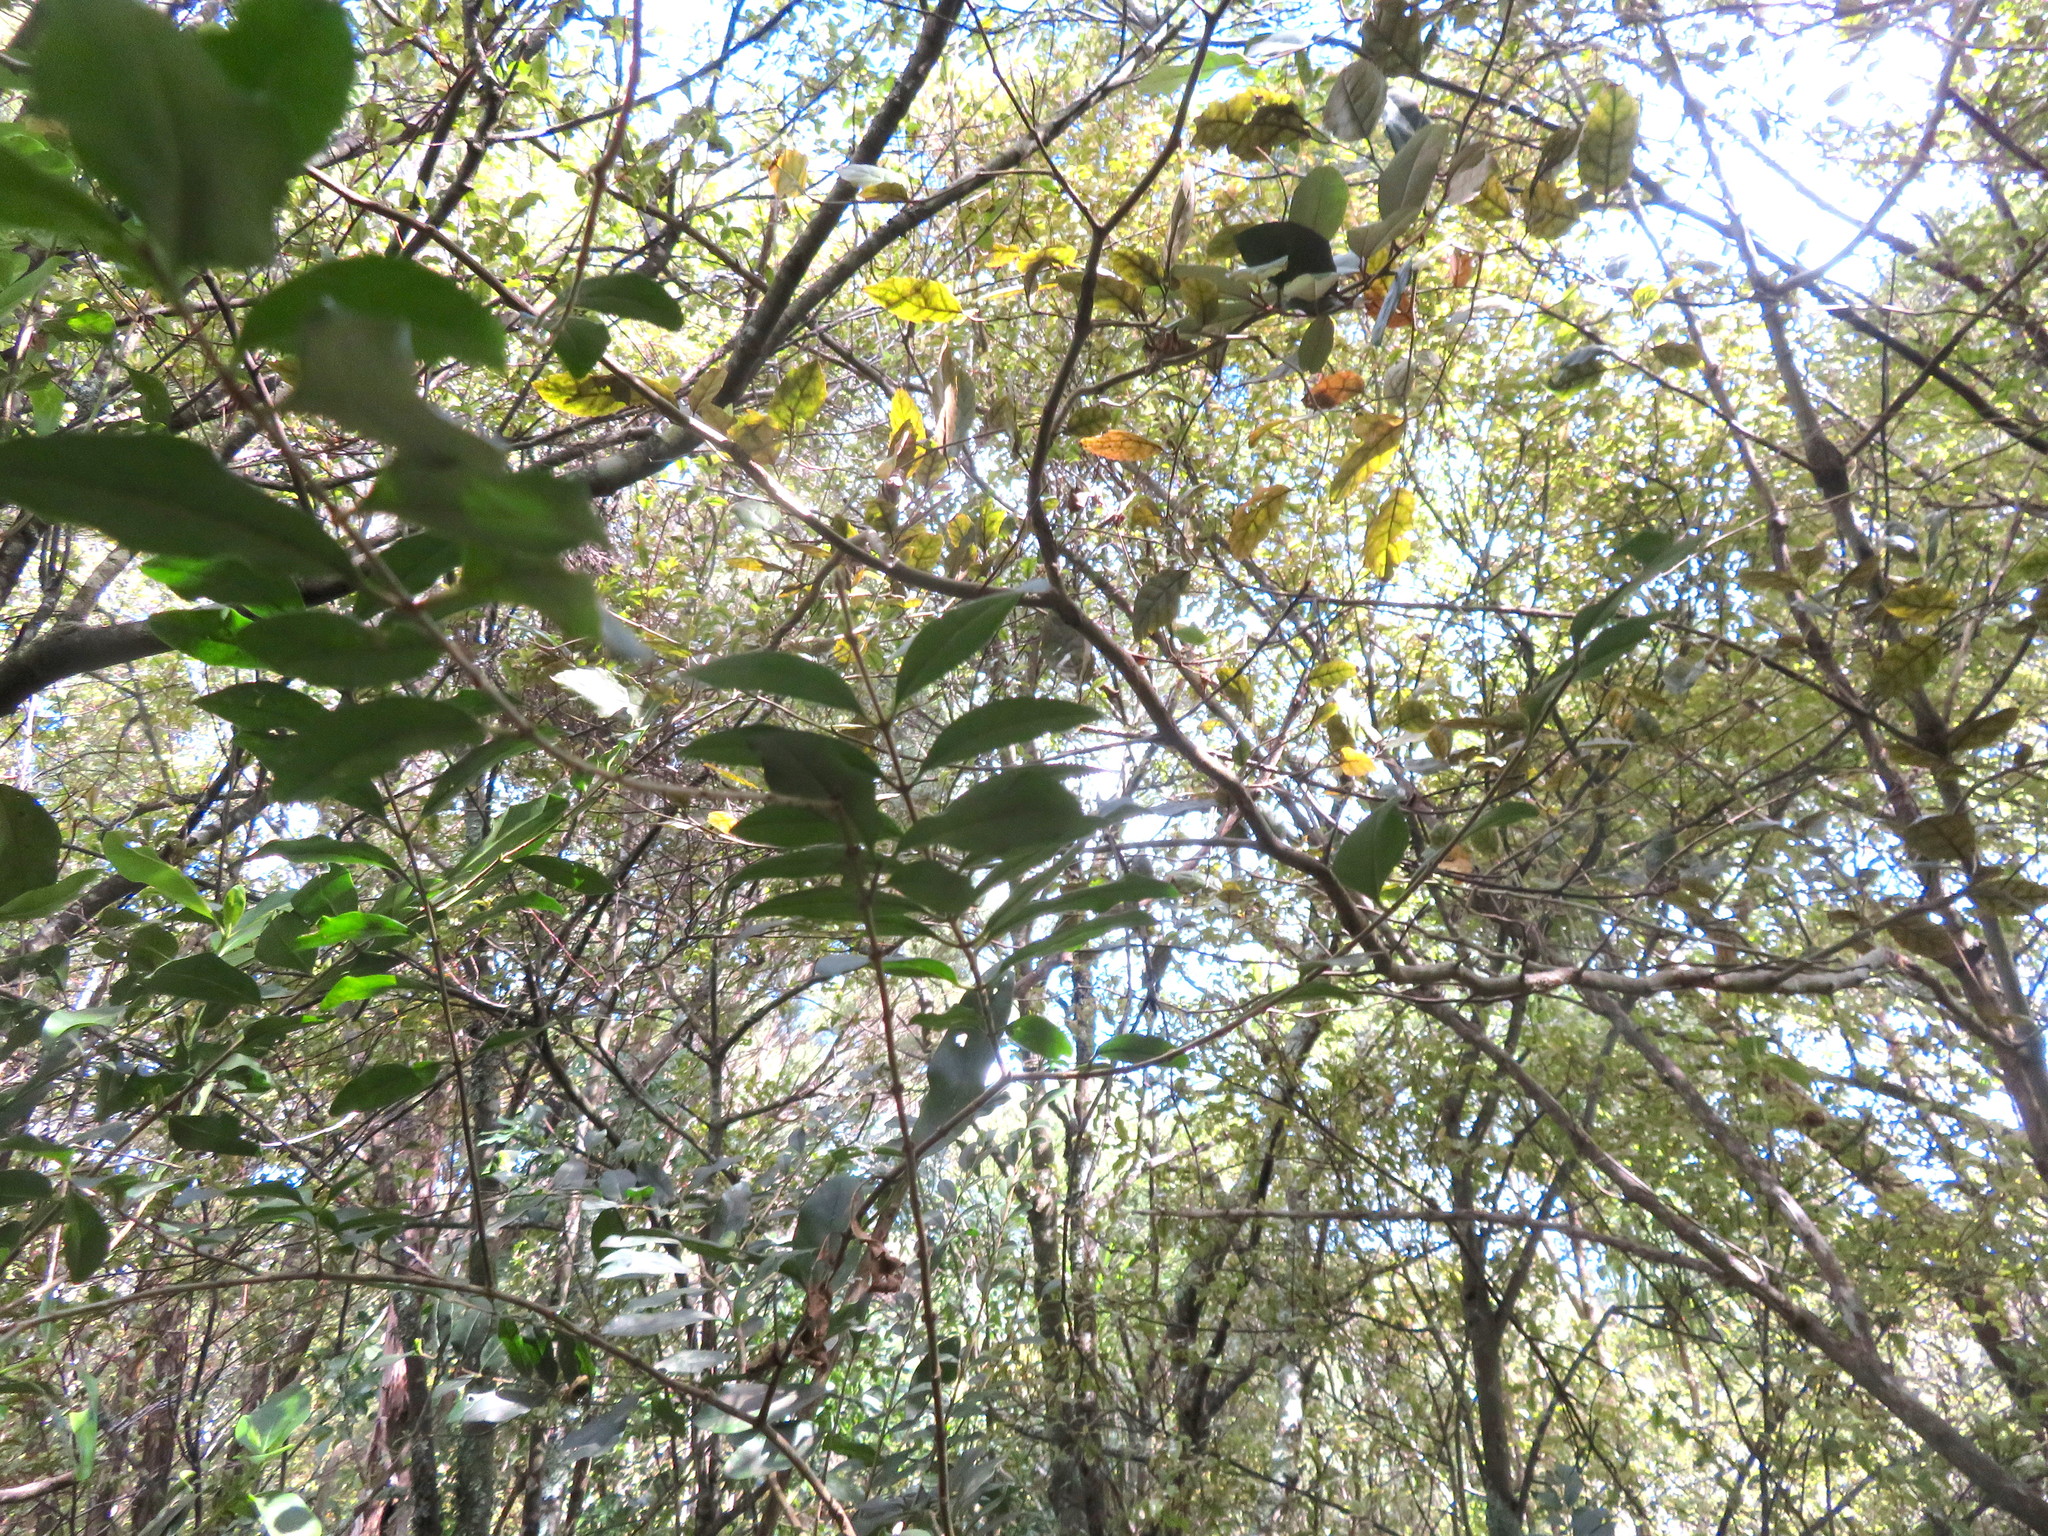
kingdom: Plantae
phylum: Tracheophyta
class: Magnoliopsida
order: Asterales
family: Rousseaceae
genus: Carpodetus
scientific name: Carpodetus serratus
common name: White mapau
